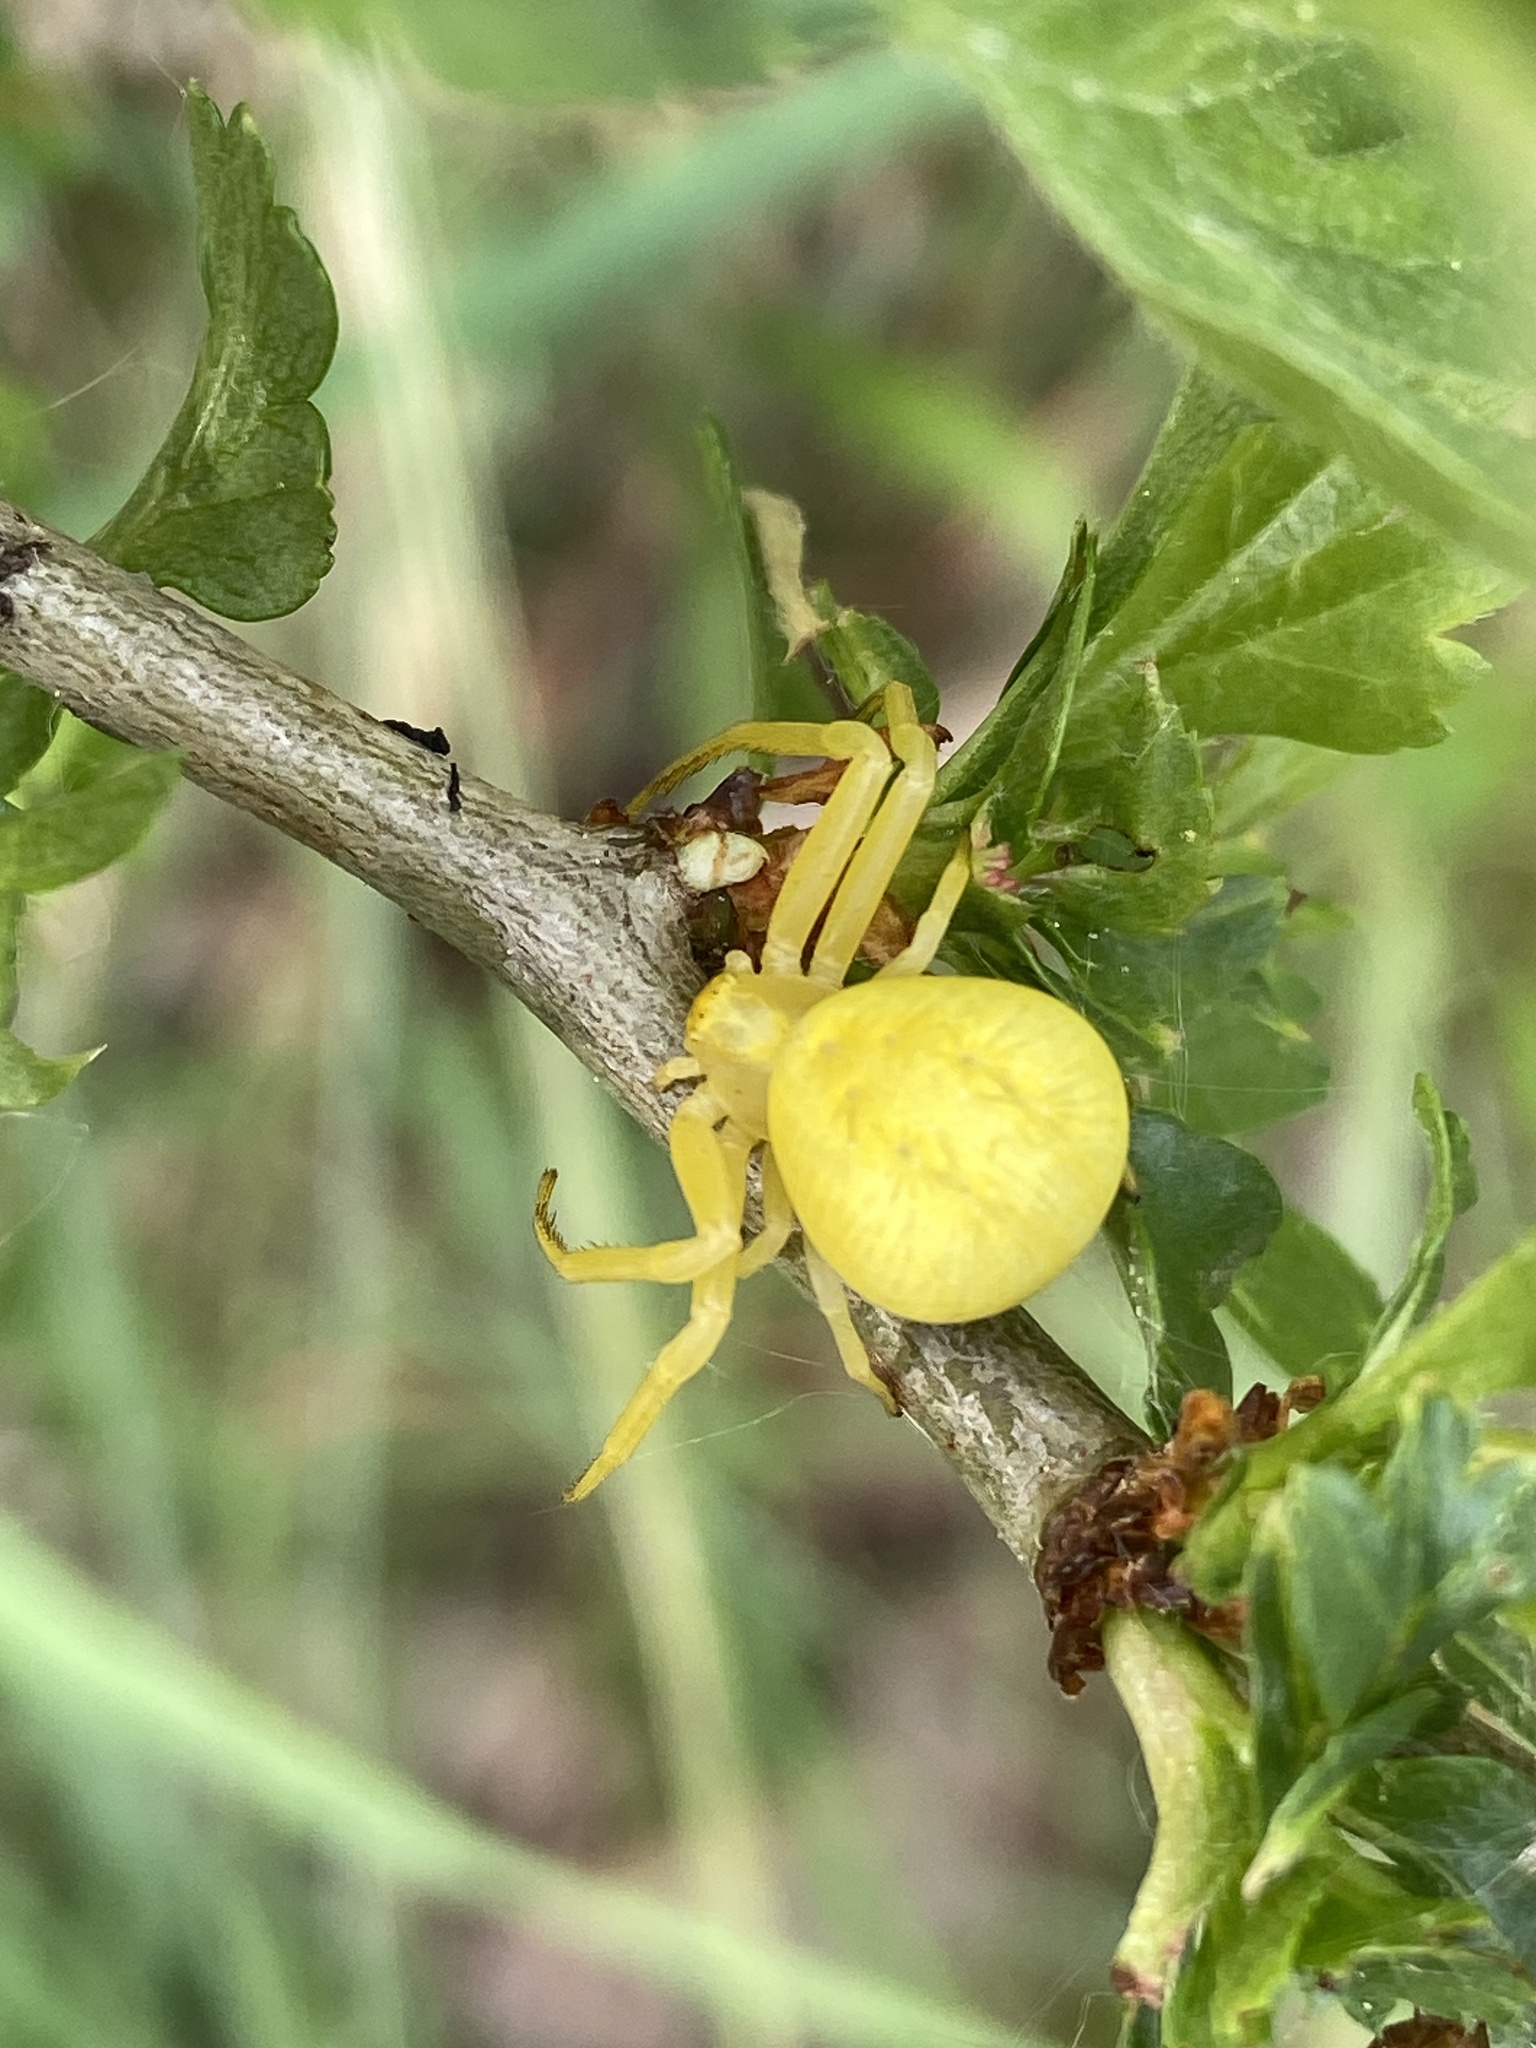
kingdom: Animalia
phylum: Arthropoda
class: Arachnida
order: Araneae
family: Thomisidae
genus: Misumena
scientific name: Misumena vatia
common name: Goldenrod crab spider
